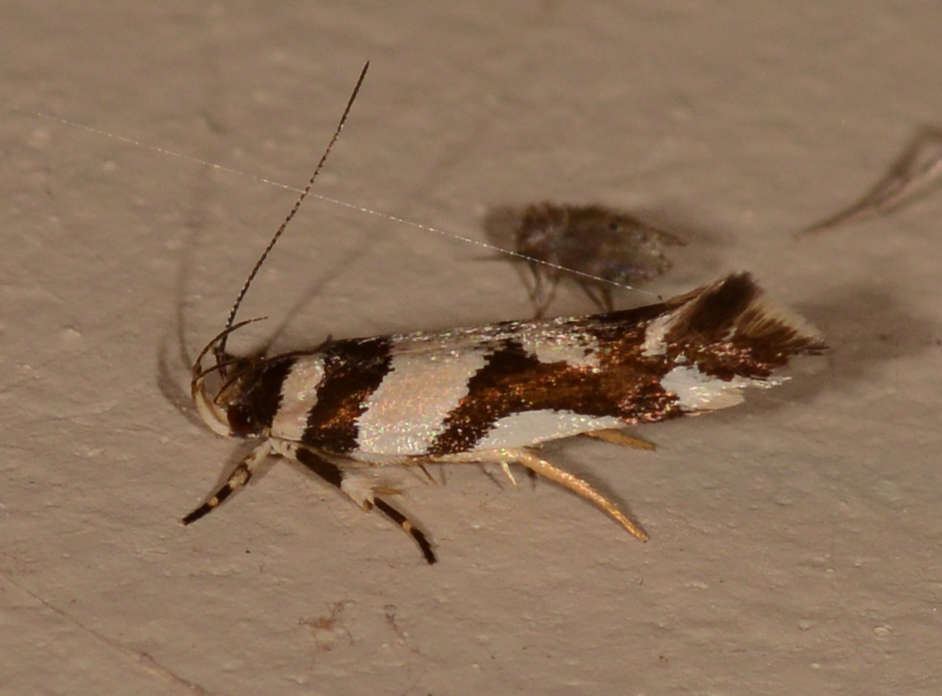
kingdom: Animalia
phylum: Arthropoda
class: Insecta
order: Lepidoptera
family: Cosmopterigidae
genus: Macrobathra
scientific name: Macrobathra desmotoma
